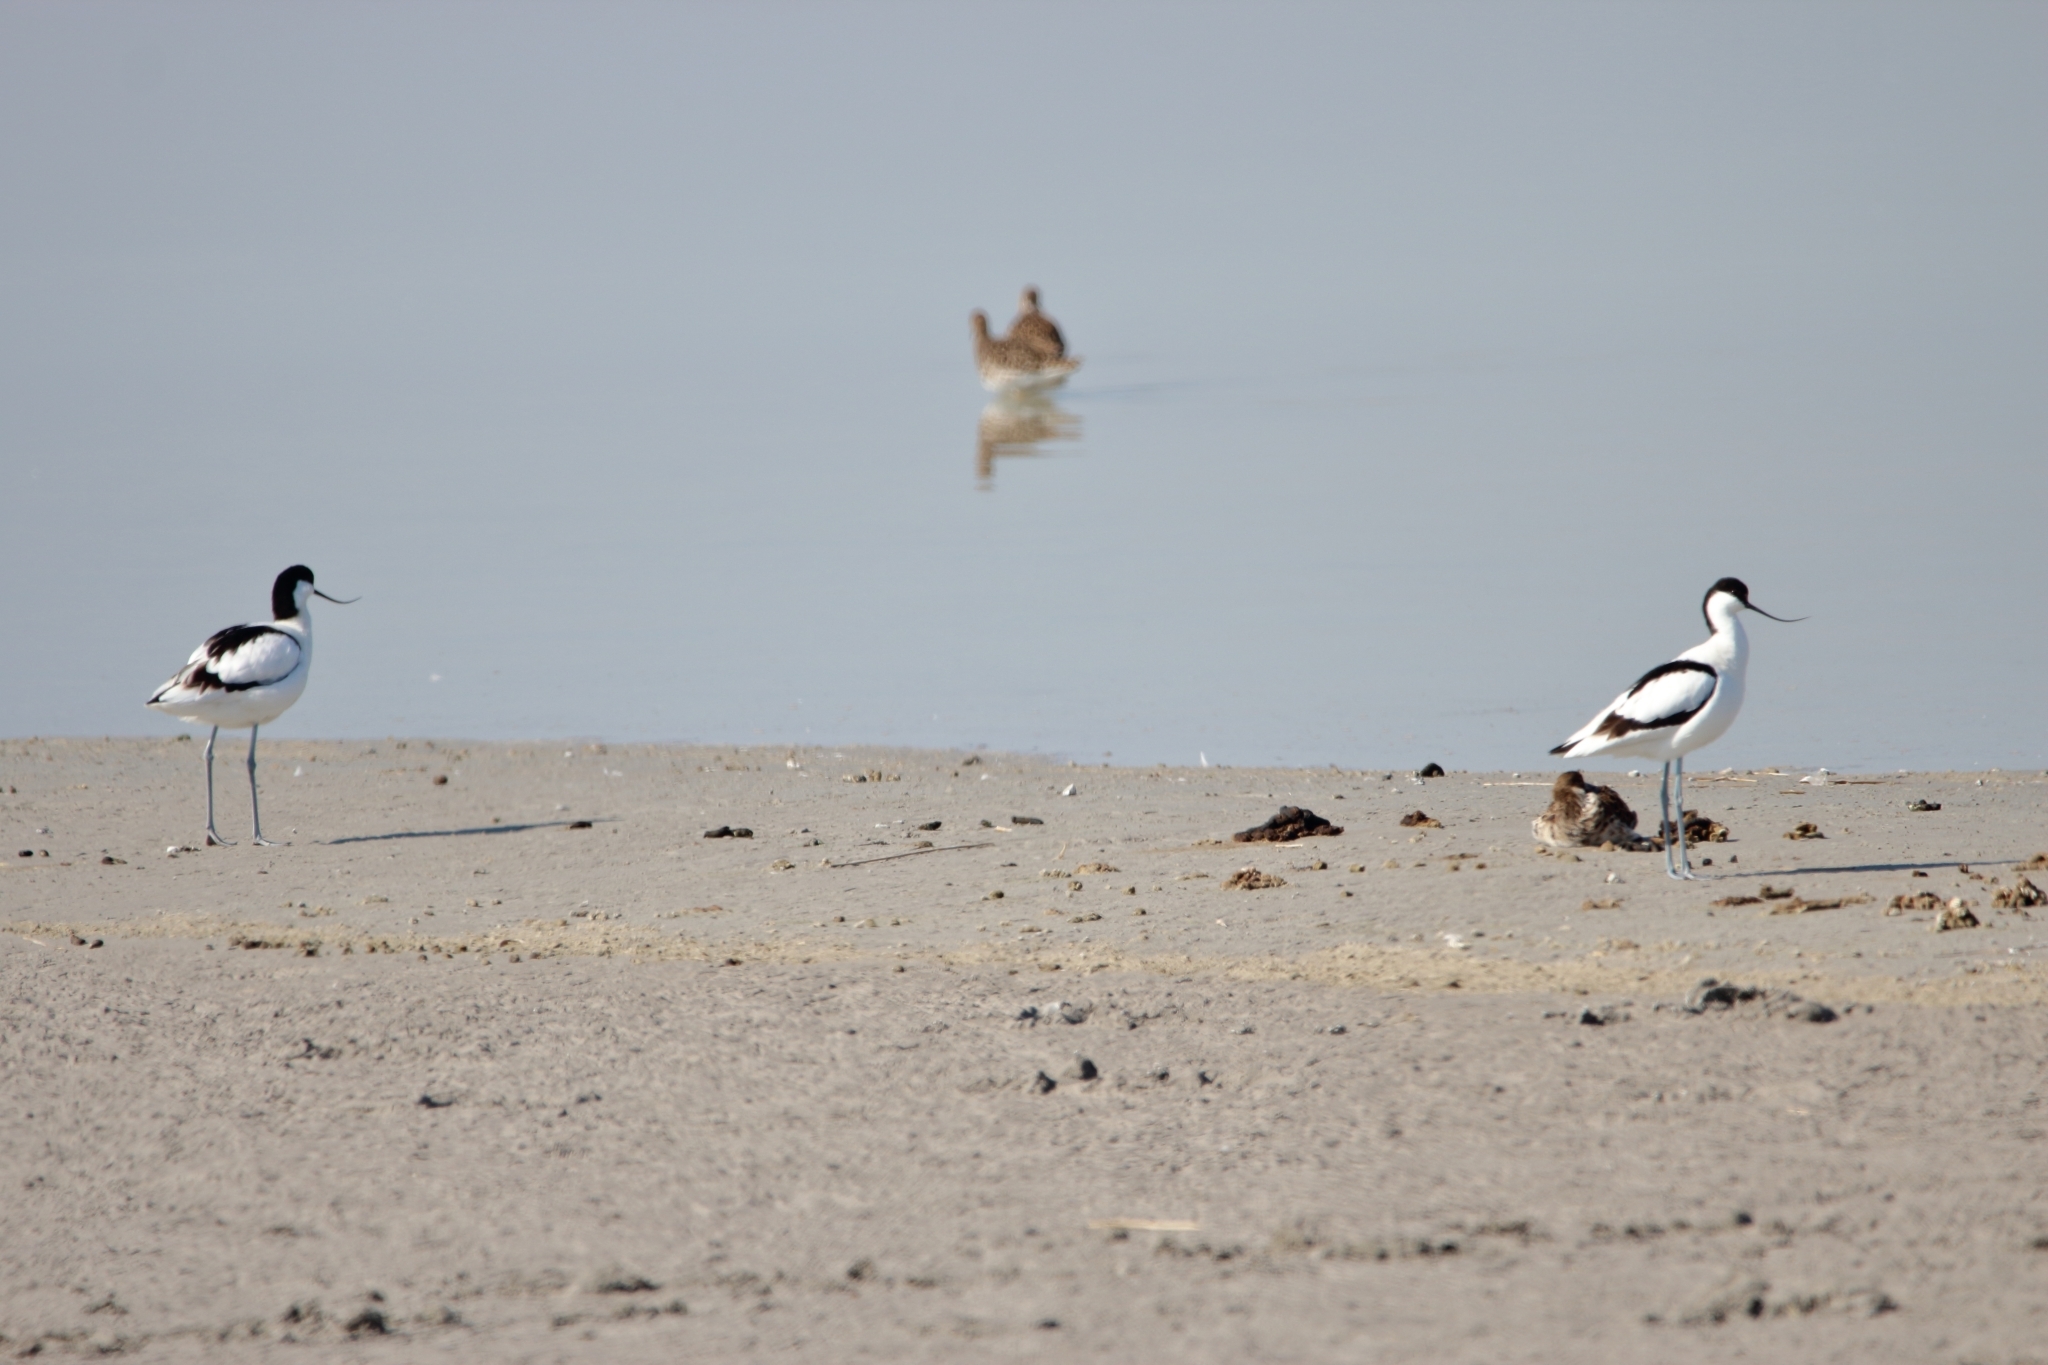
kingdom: Animalia
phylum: Chordata
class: Aves
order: Charadriiformes
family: Recurvirostridae
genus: Recurvirostra
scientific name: Recurvirostra avosetta
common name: Pied avocet
